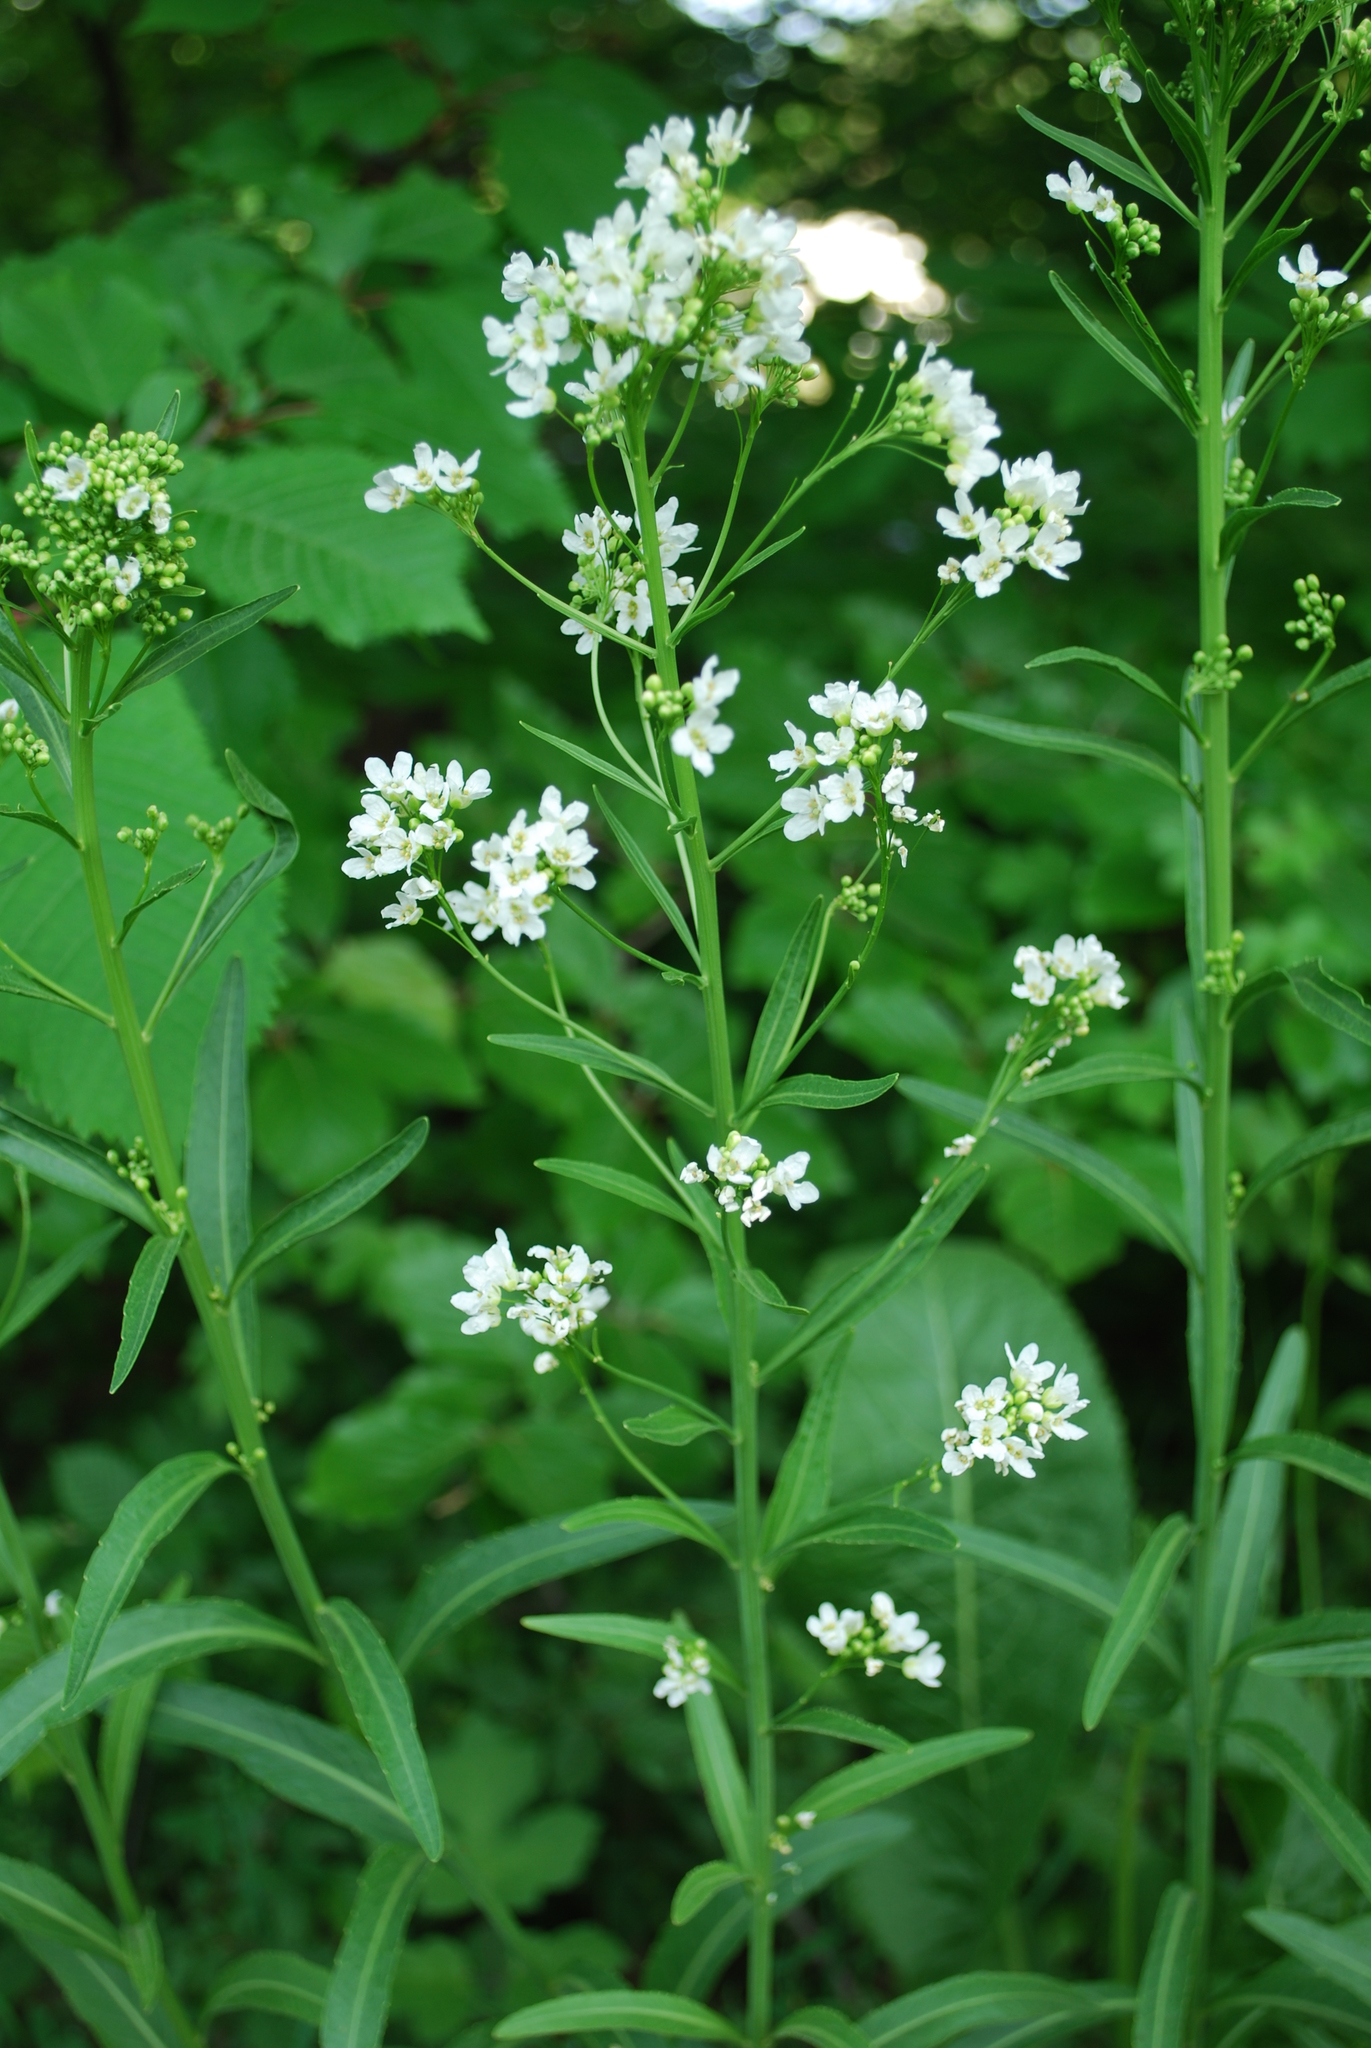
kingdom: Plantae
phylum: Tracheophyta
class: Magnoliopsida
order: Brassicales
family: Brassicaceae
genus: Armoracia
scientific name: Armoracia rusticana
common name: Horseradish
